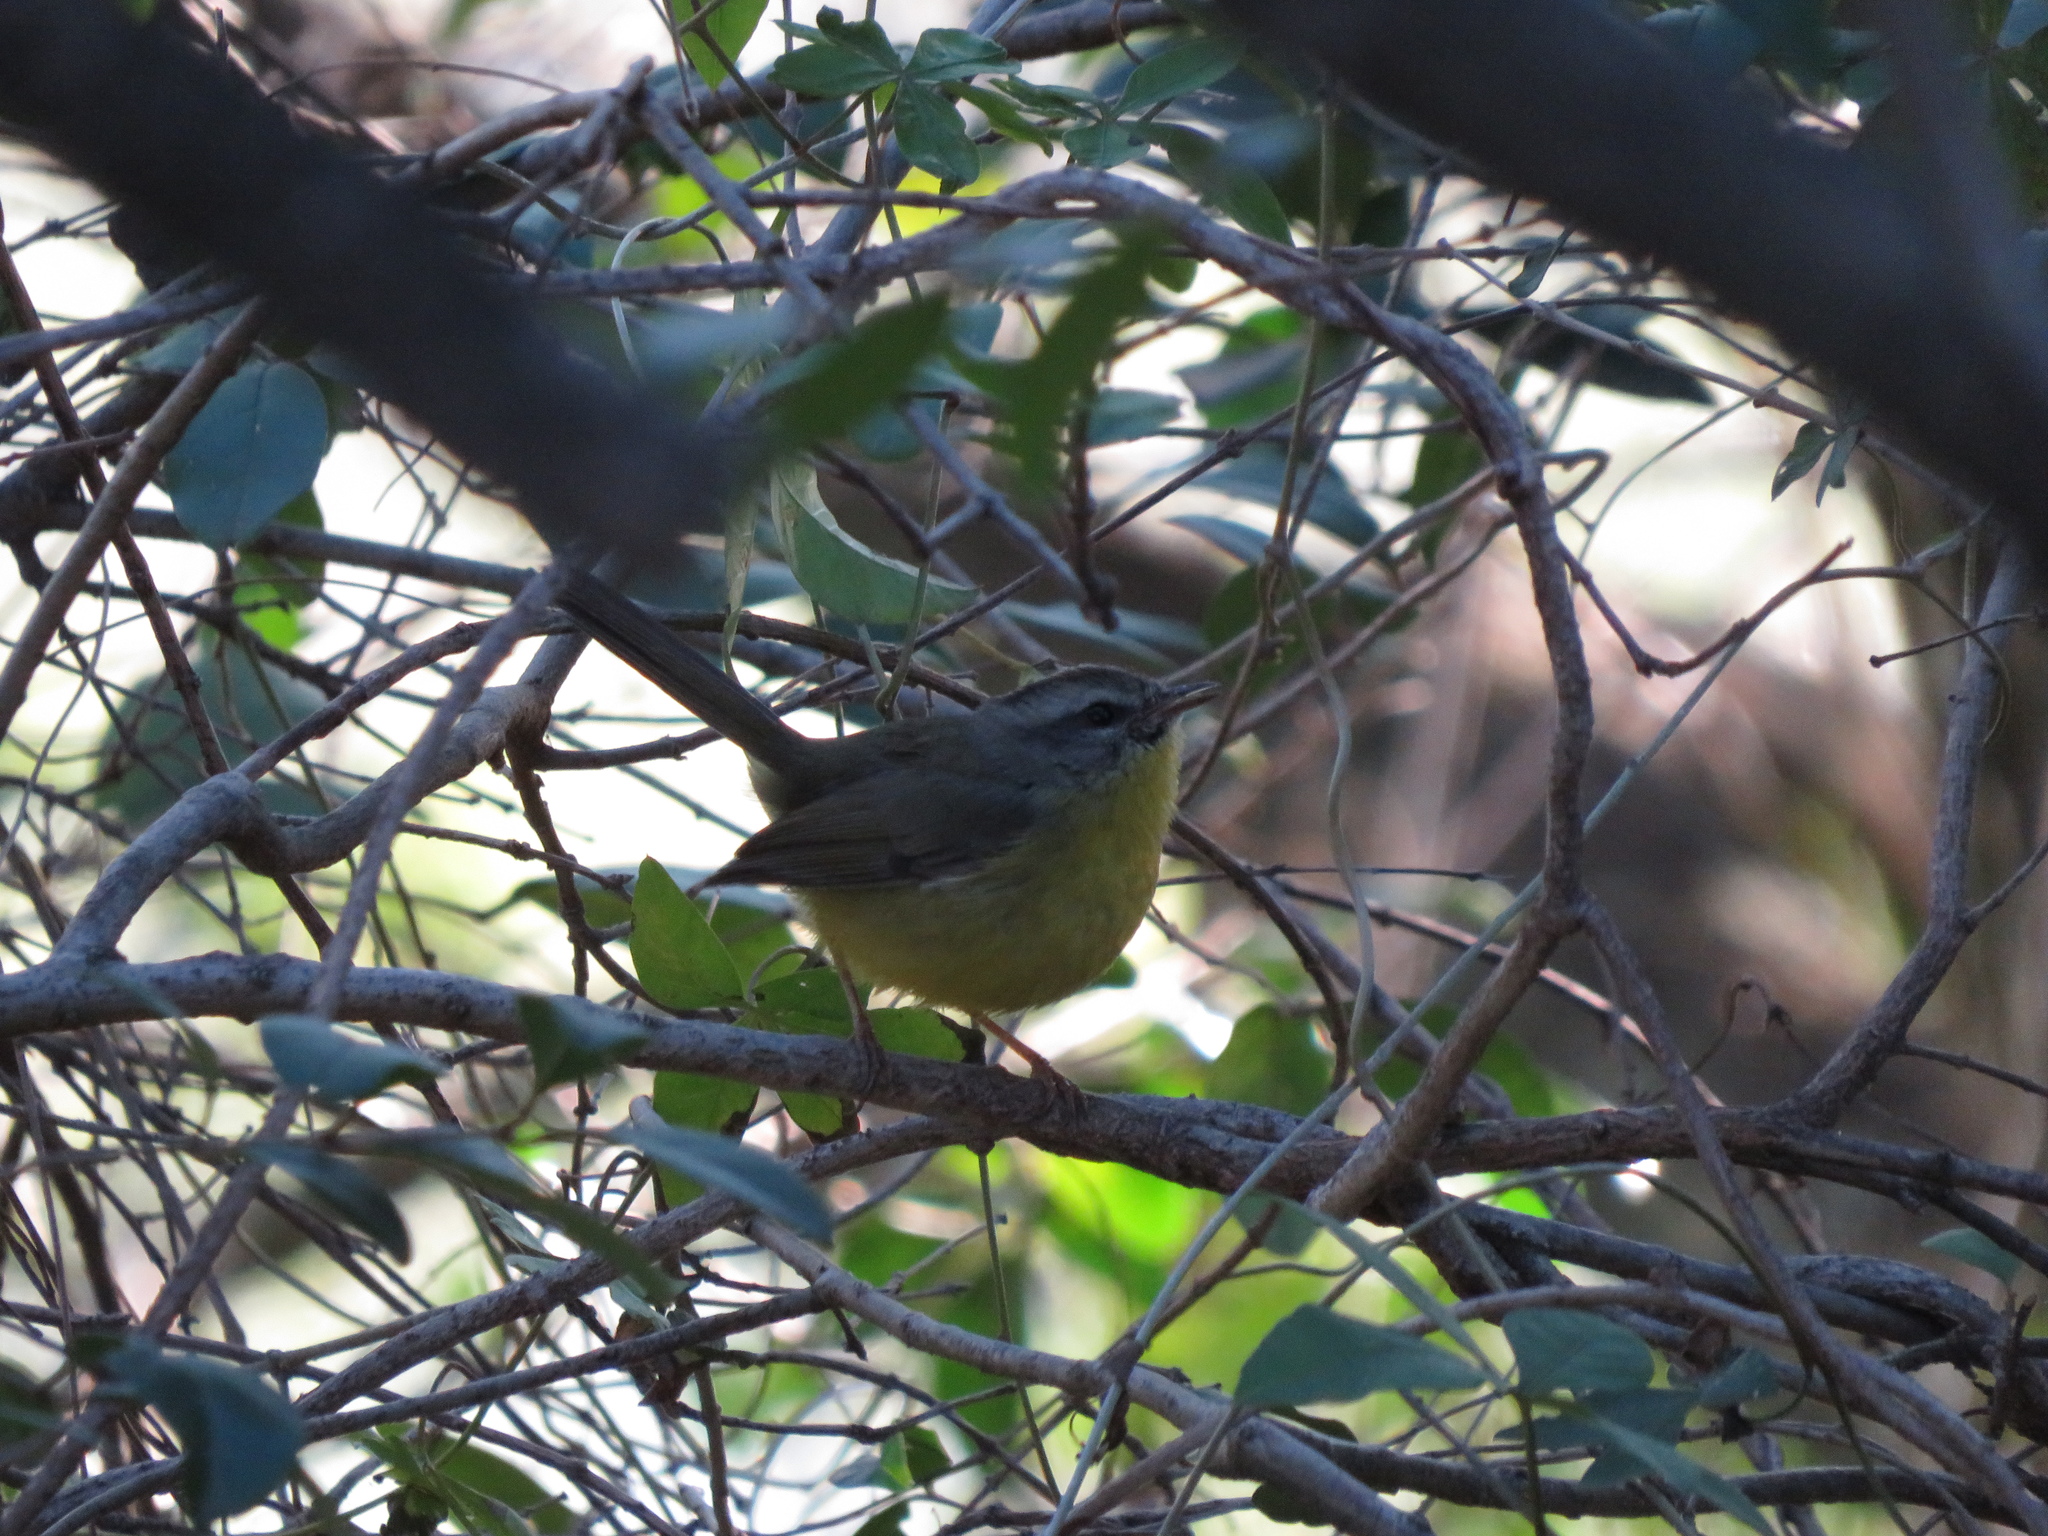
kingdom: Animalia
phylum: Chordata
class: Aves
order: Passeriformes
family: Parulidae
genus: Basileuterus
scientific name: Basileuterus culicivorus
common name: Golden-crowned warbler
